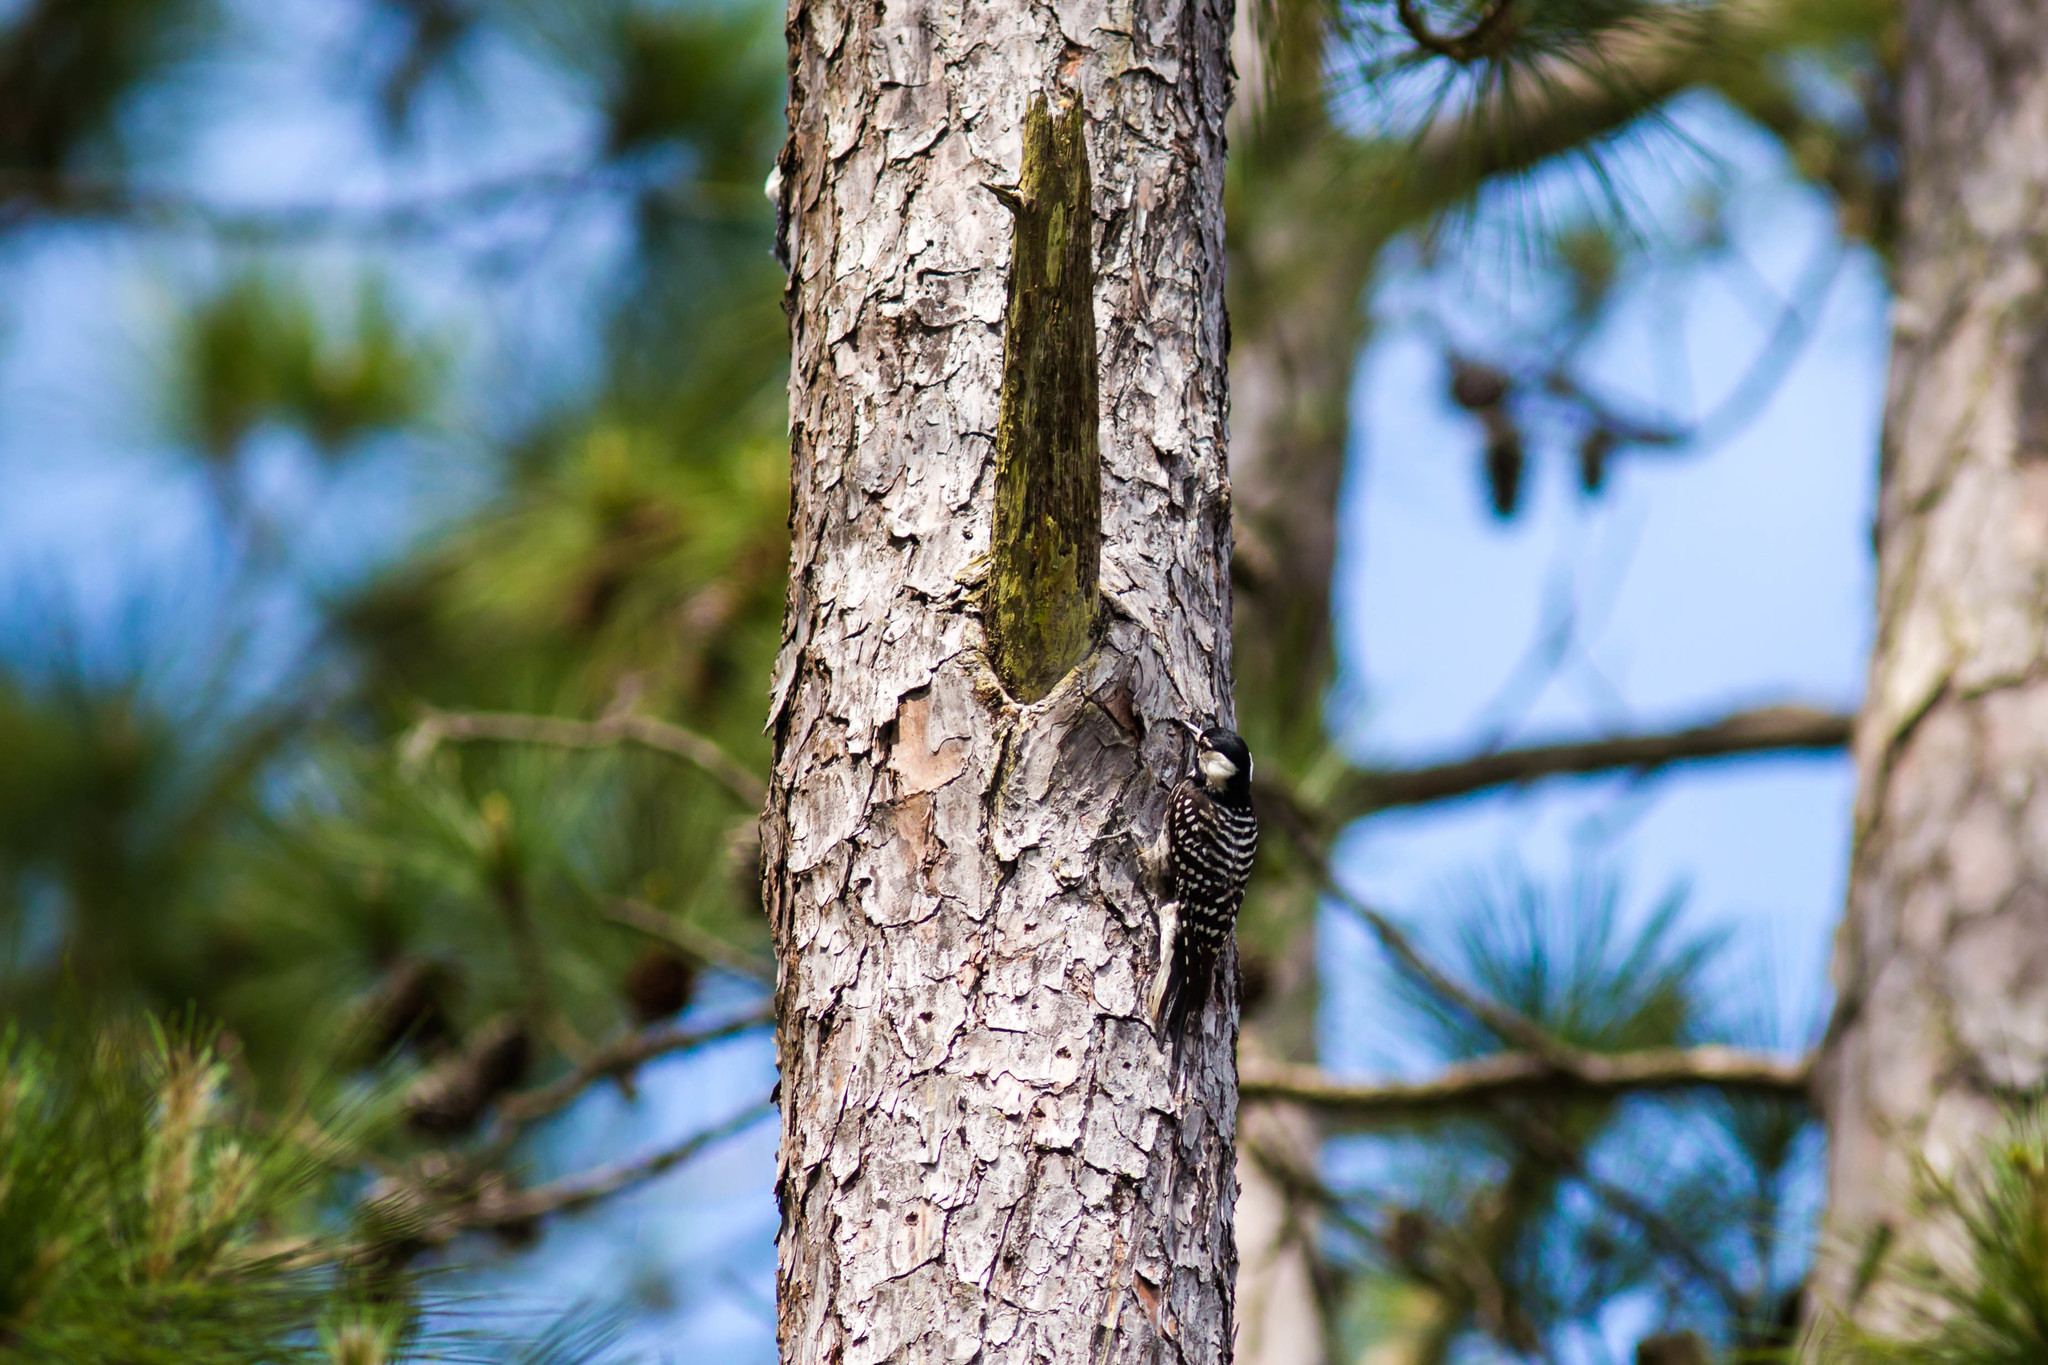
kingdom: Animalia
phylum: Chordata
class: Aves
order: Piciformes
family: Picidae
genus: Leuconotopicus
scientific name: Leuconotopicus borealis
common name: Red-cockaded woodpecker
